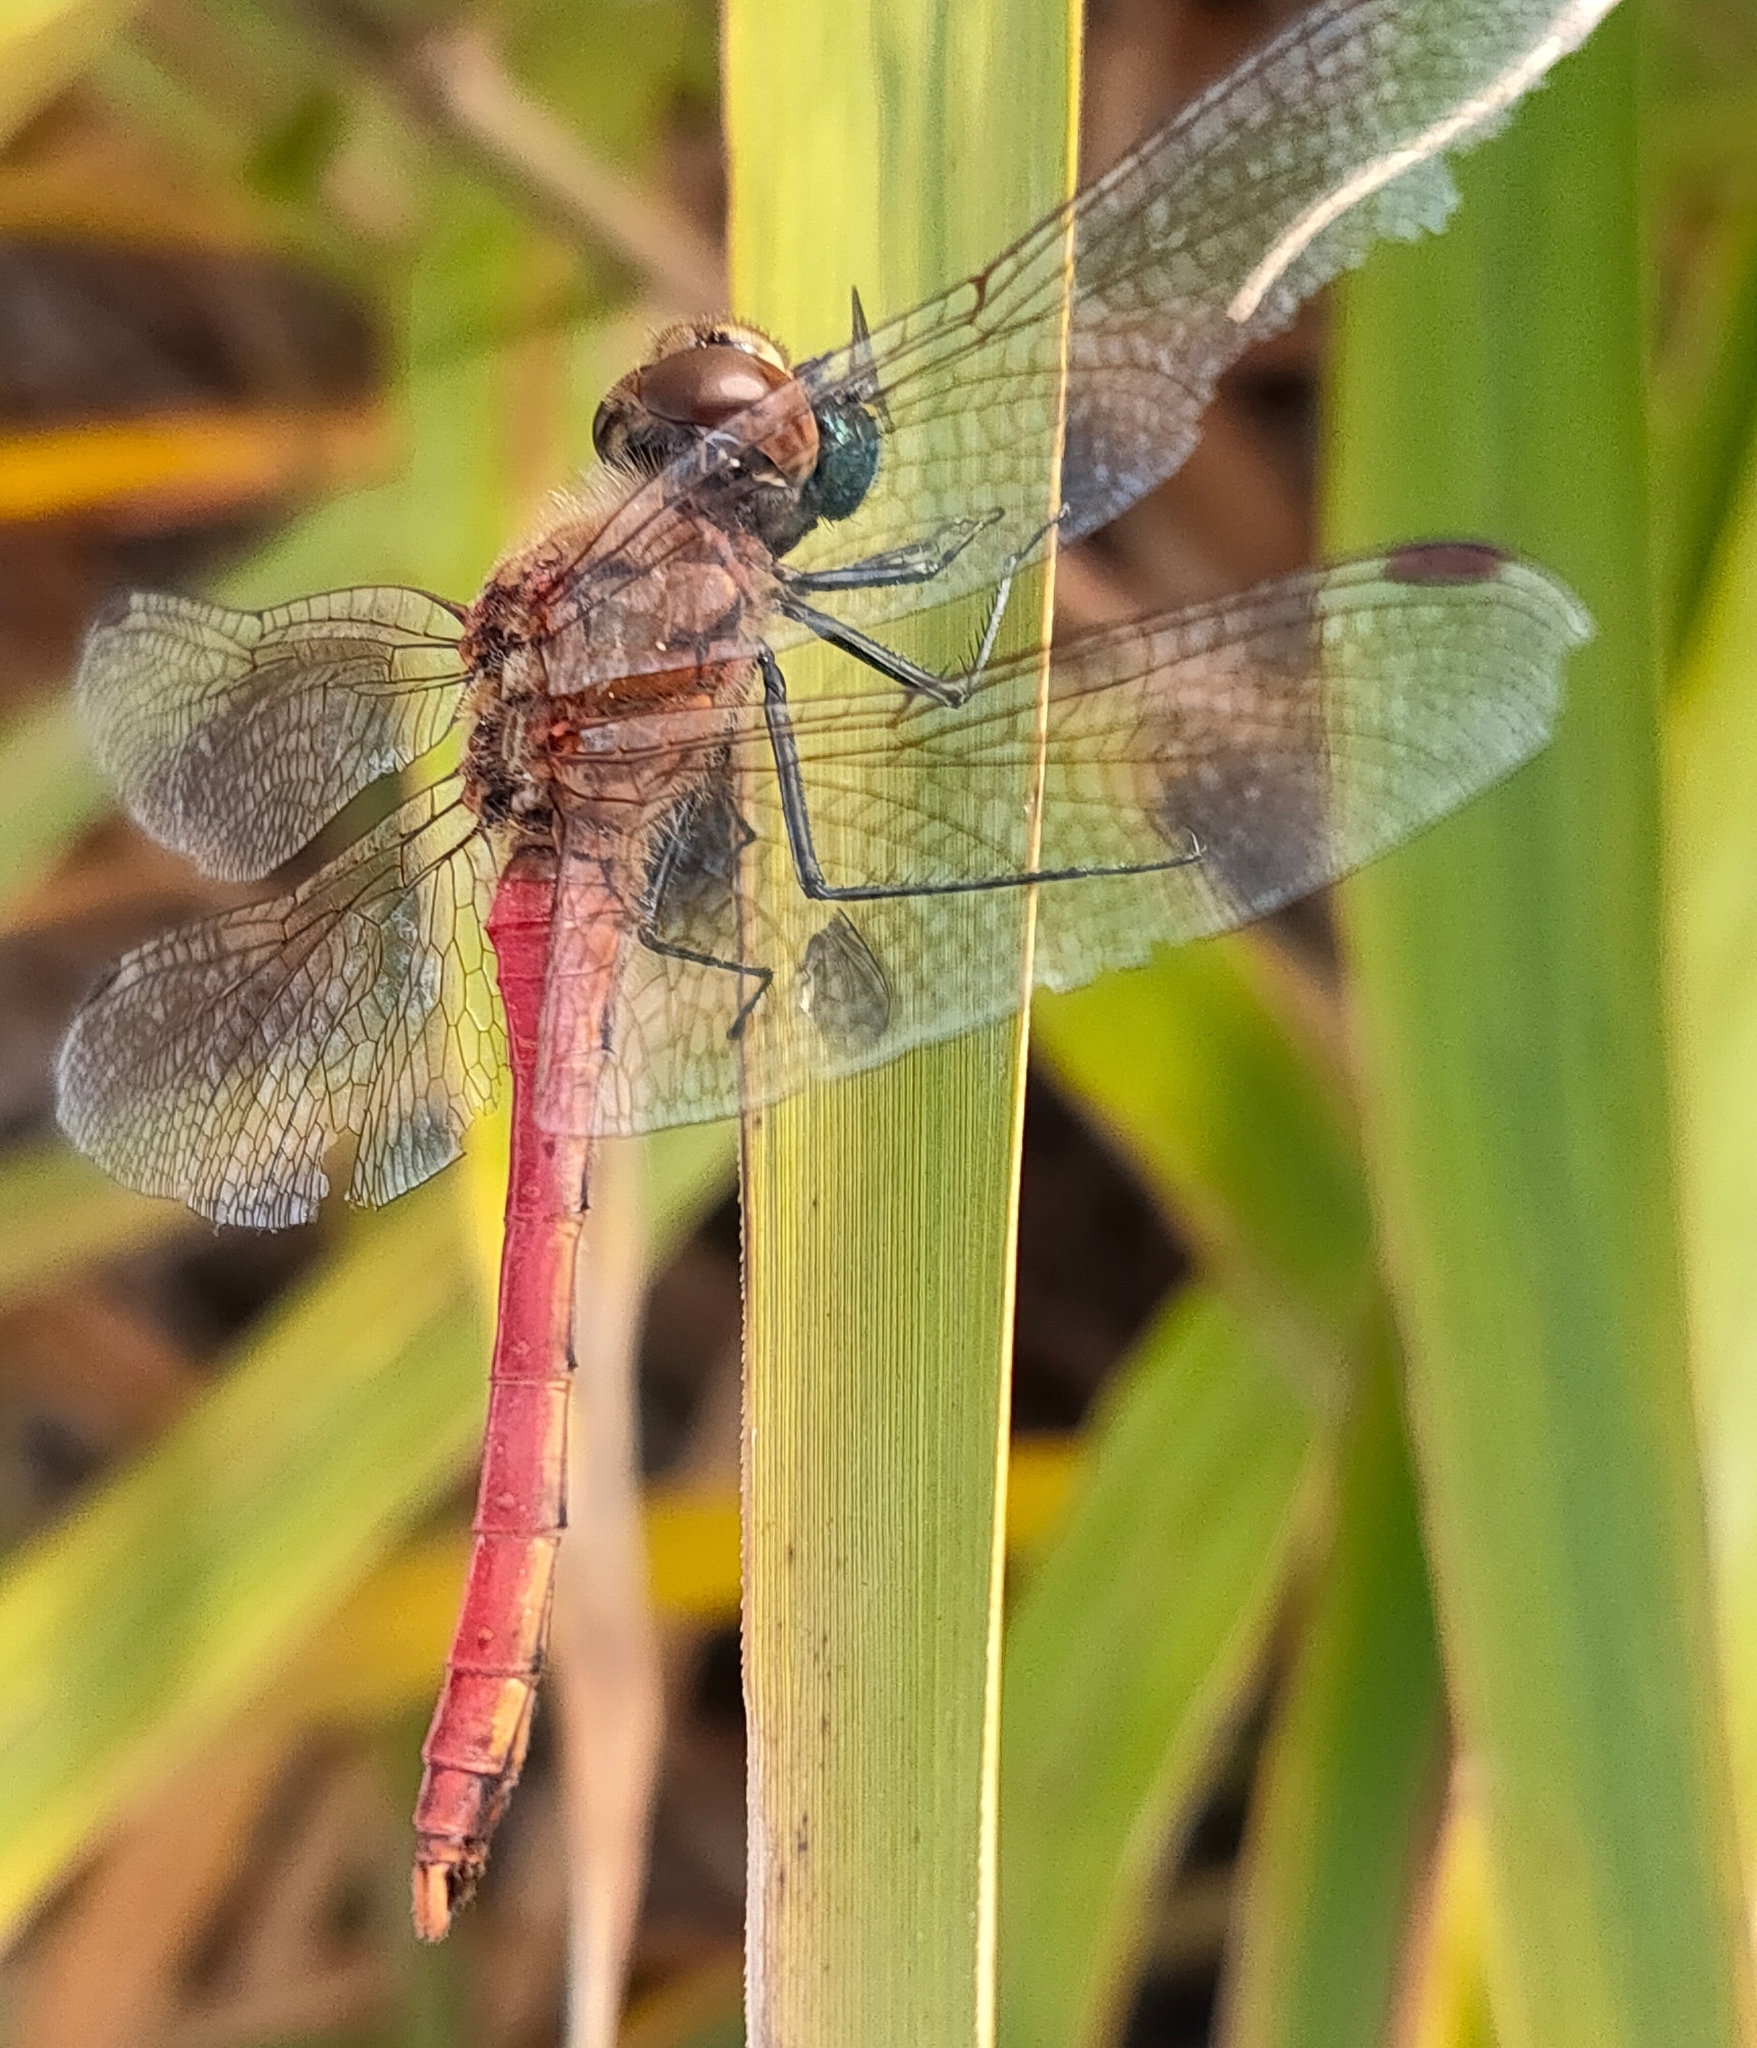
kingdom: Animalia
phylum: Arthropoda
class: Insecta
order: Odonata
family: Libellulidae
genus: Sympetrum
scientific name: Sympetrum frequens
